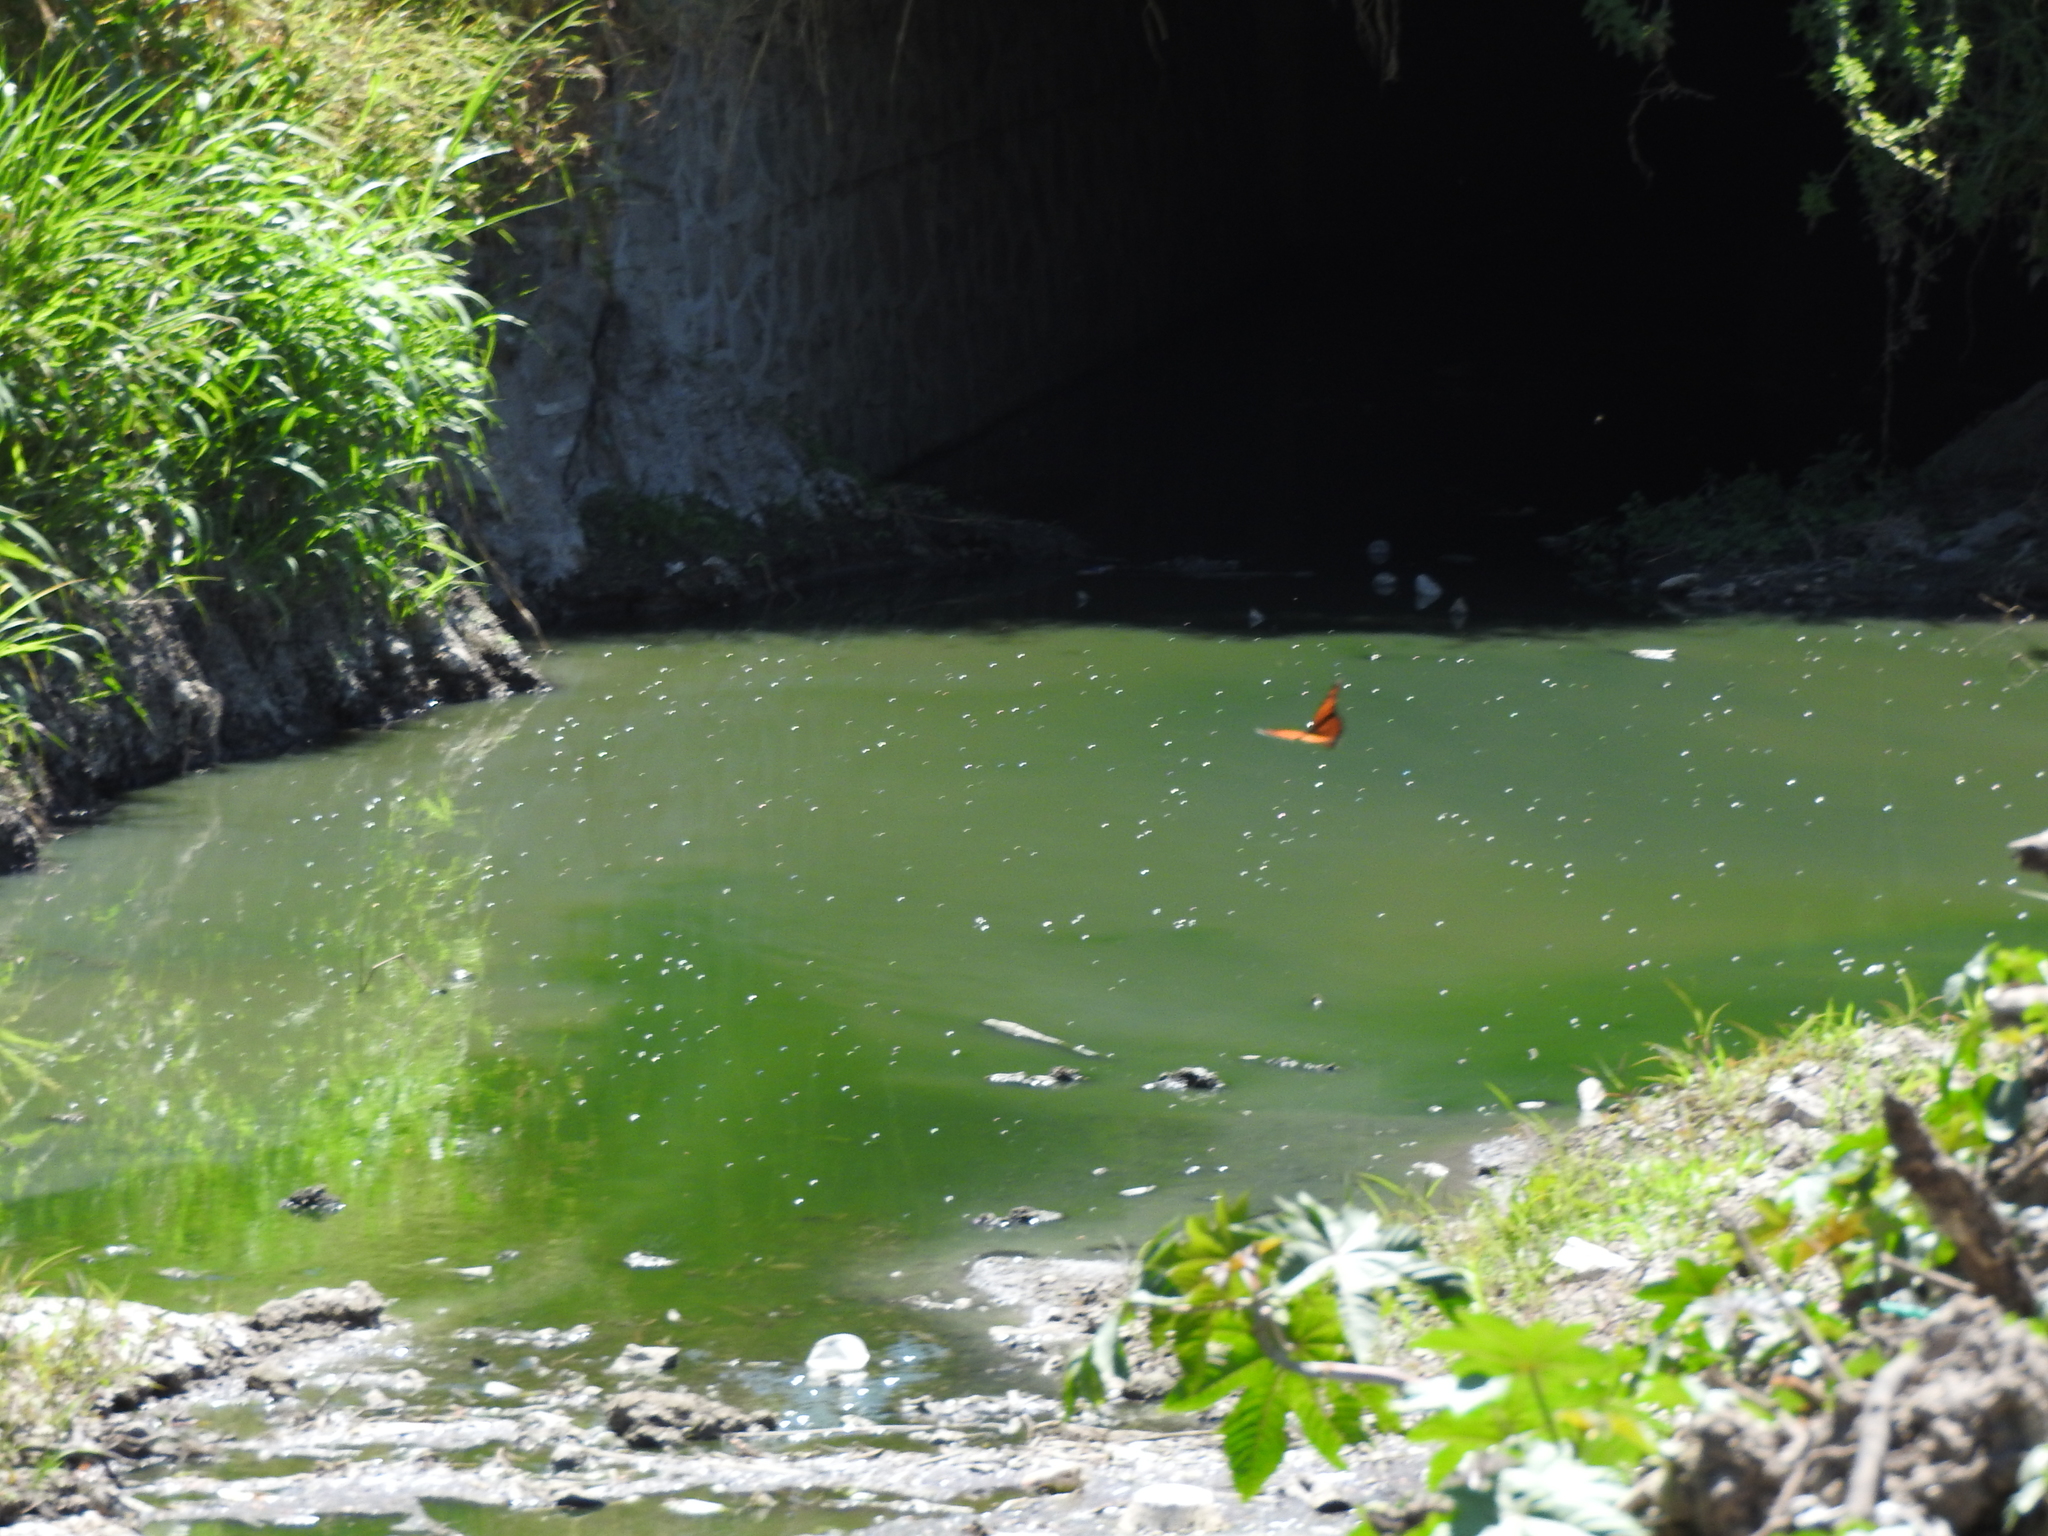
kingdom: Animalia
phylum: Arthropoda
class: Insecta
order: Lepidoptera
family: Nymphalidae
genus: Danaus
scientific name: Danaus plexippus
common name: Monarch
